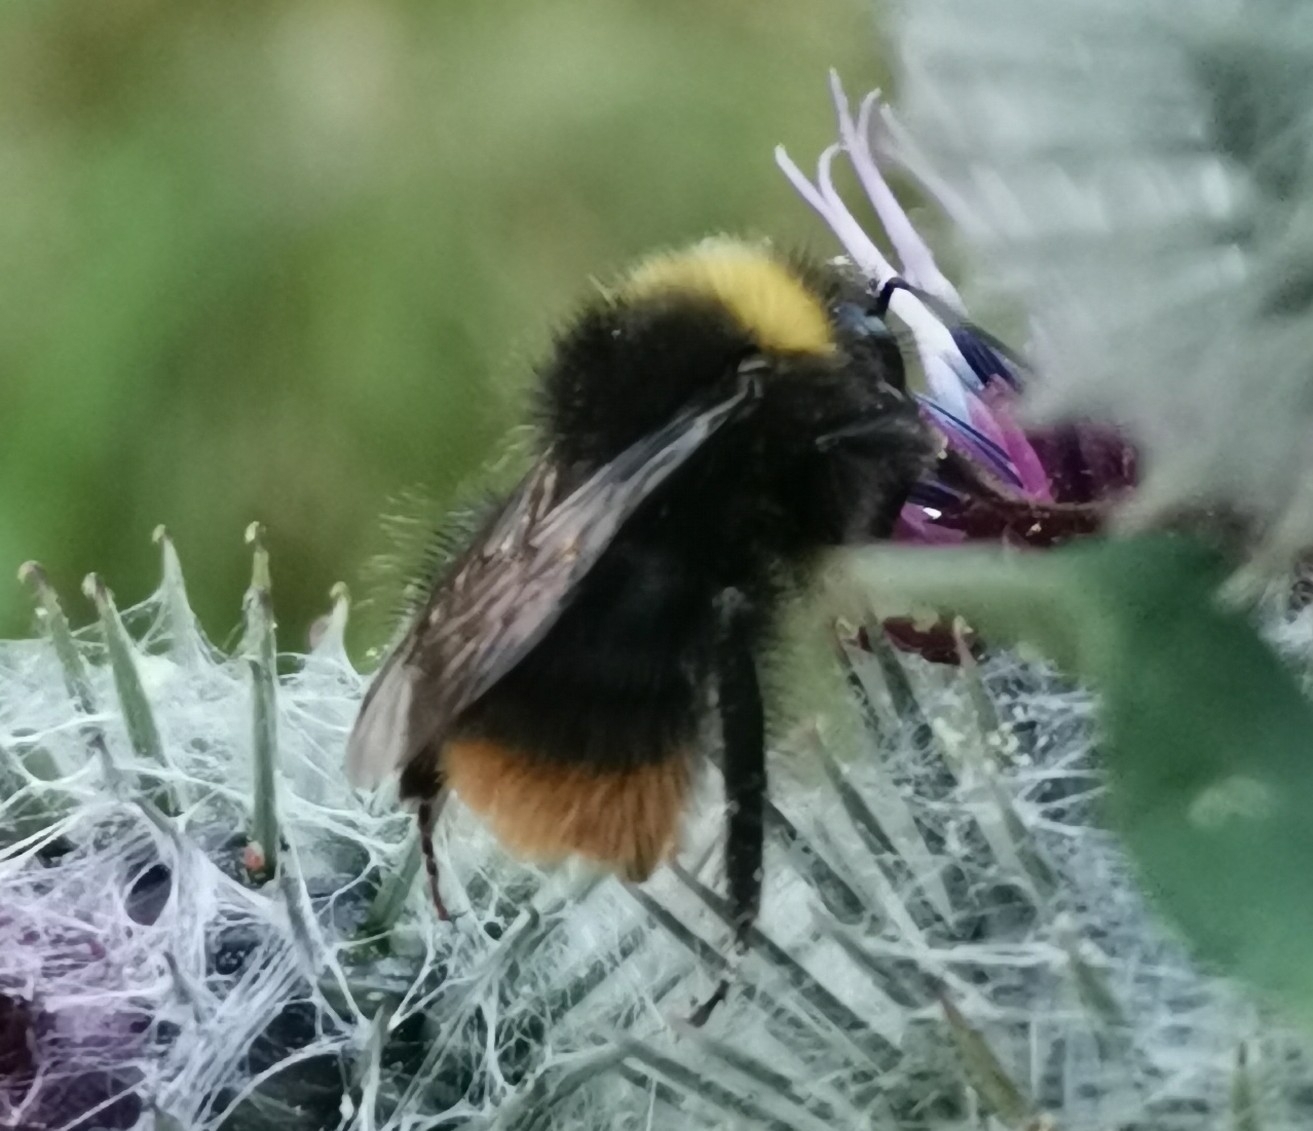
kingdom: Animalia
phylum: Arthropoda
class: Insecta
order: Hymenoptera
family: Apidae
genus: Bombus
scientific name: Bombus pratorum
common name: Early humble-bee
